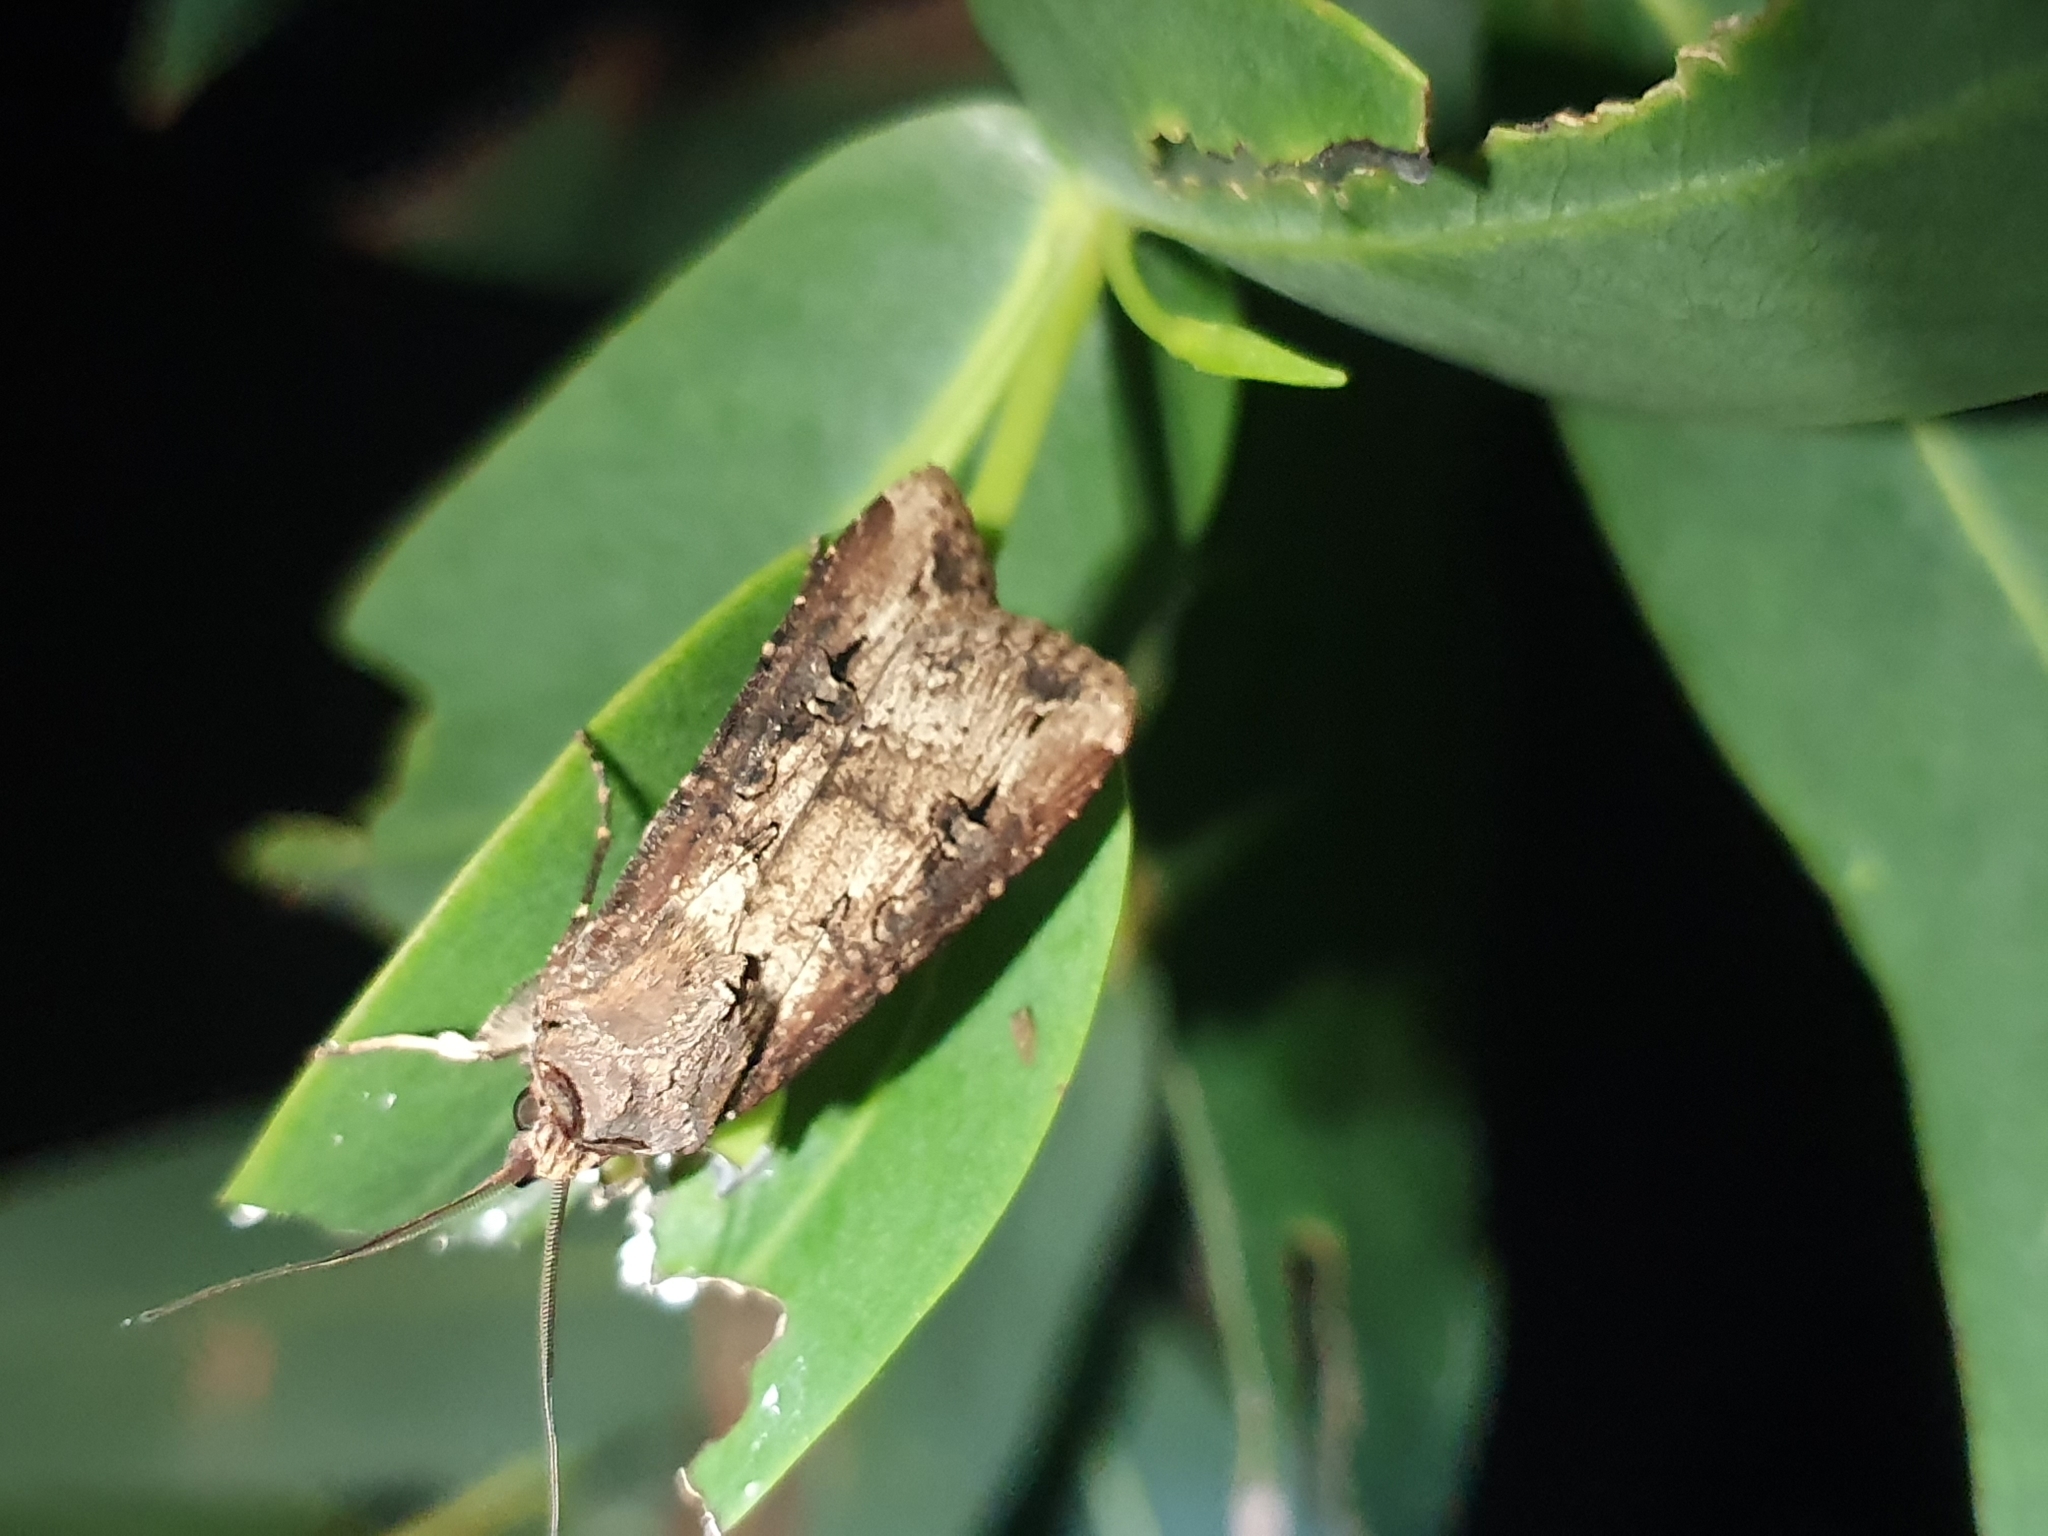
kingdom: Animalia
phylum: Arthropoda
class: Insecta
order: Lepidoptera
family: Noctuidae
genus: Agrotis
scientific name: Agrotis ipsilon
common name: Dark sword-grass
